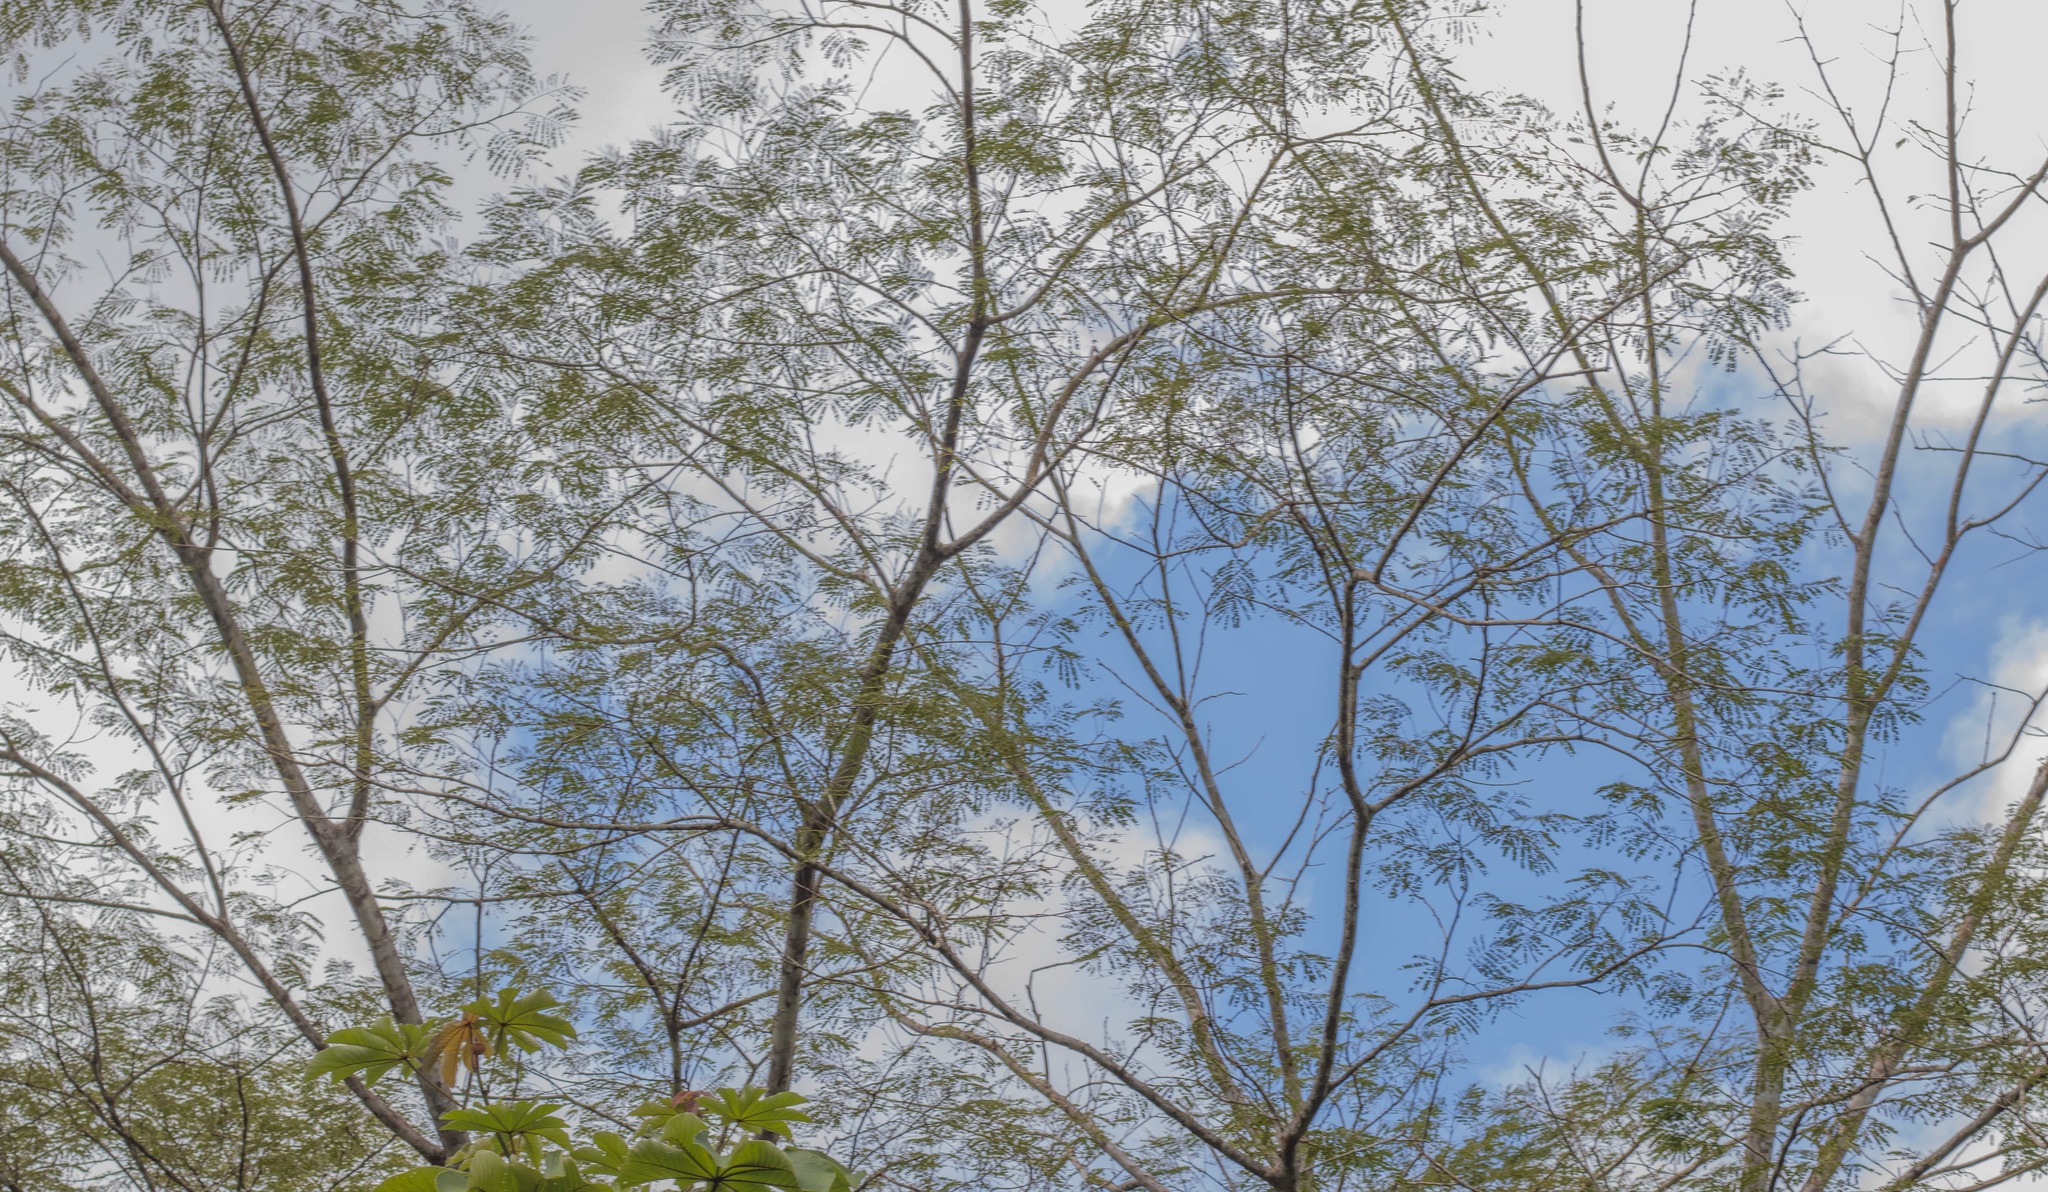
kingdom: Plantae
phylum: Tracheophyta
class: Magnoliopsida
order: Fabales
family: Fabaceae
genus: Enterolobium
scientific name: Enterolobium cyclocarpum
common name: Ear tree
